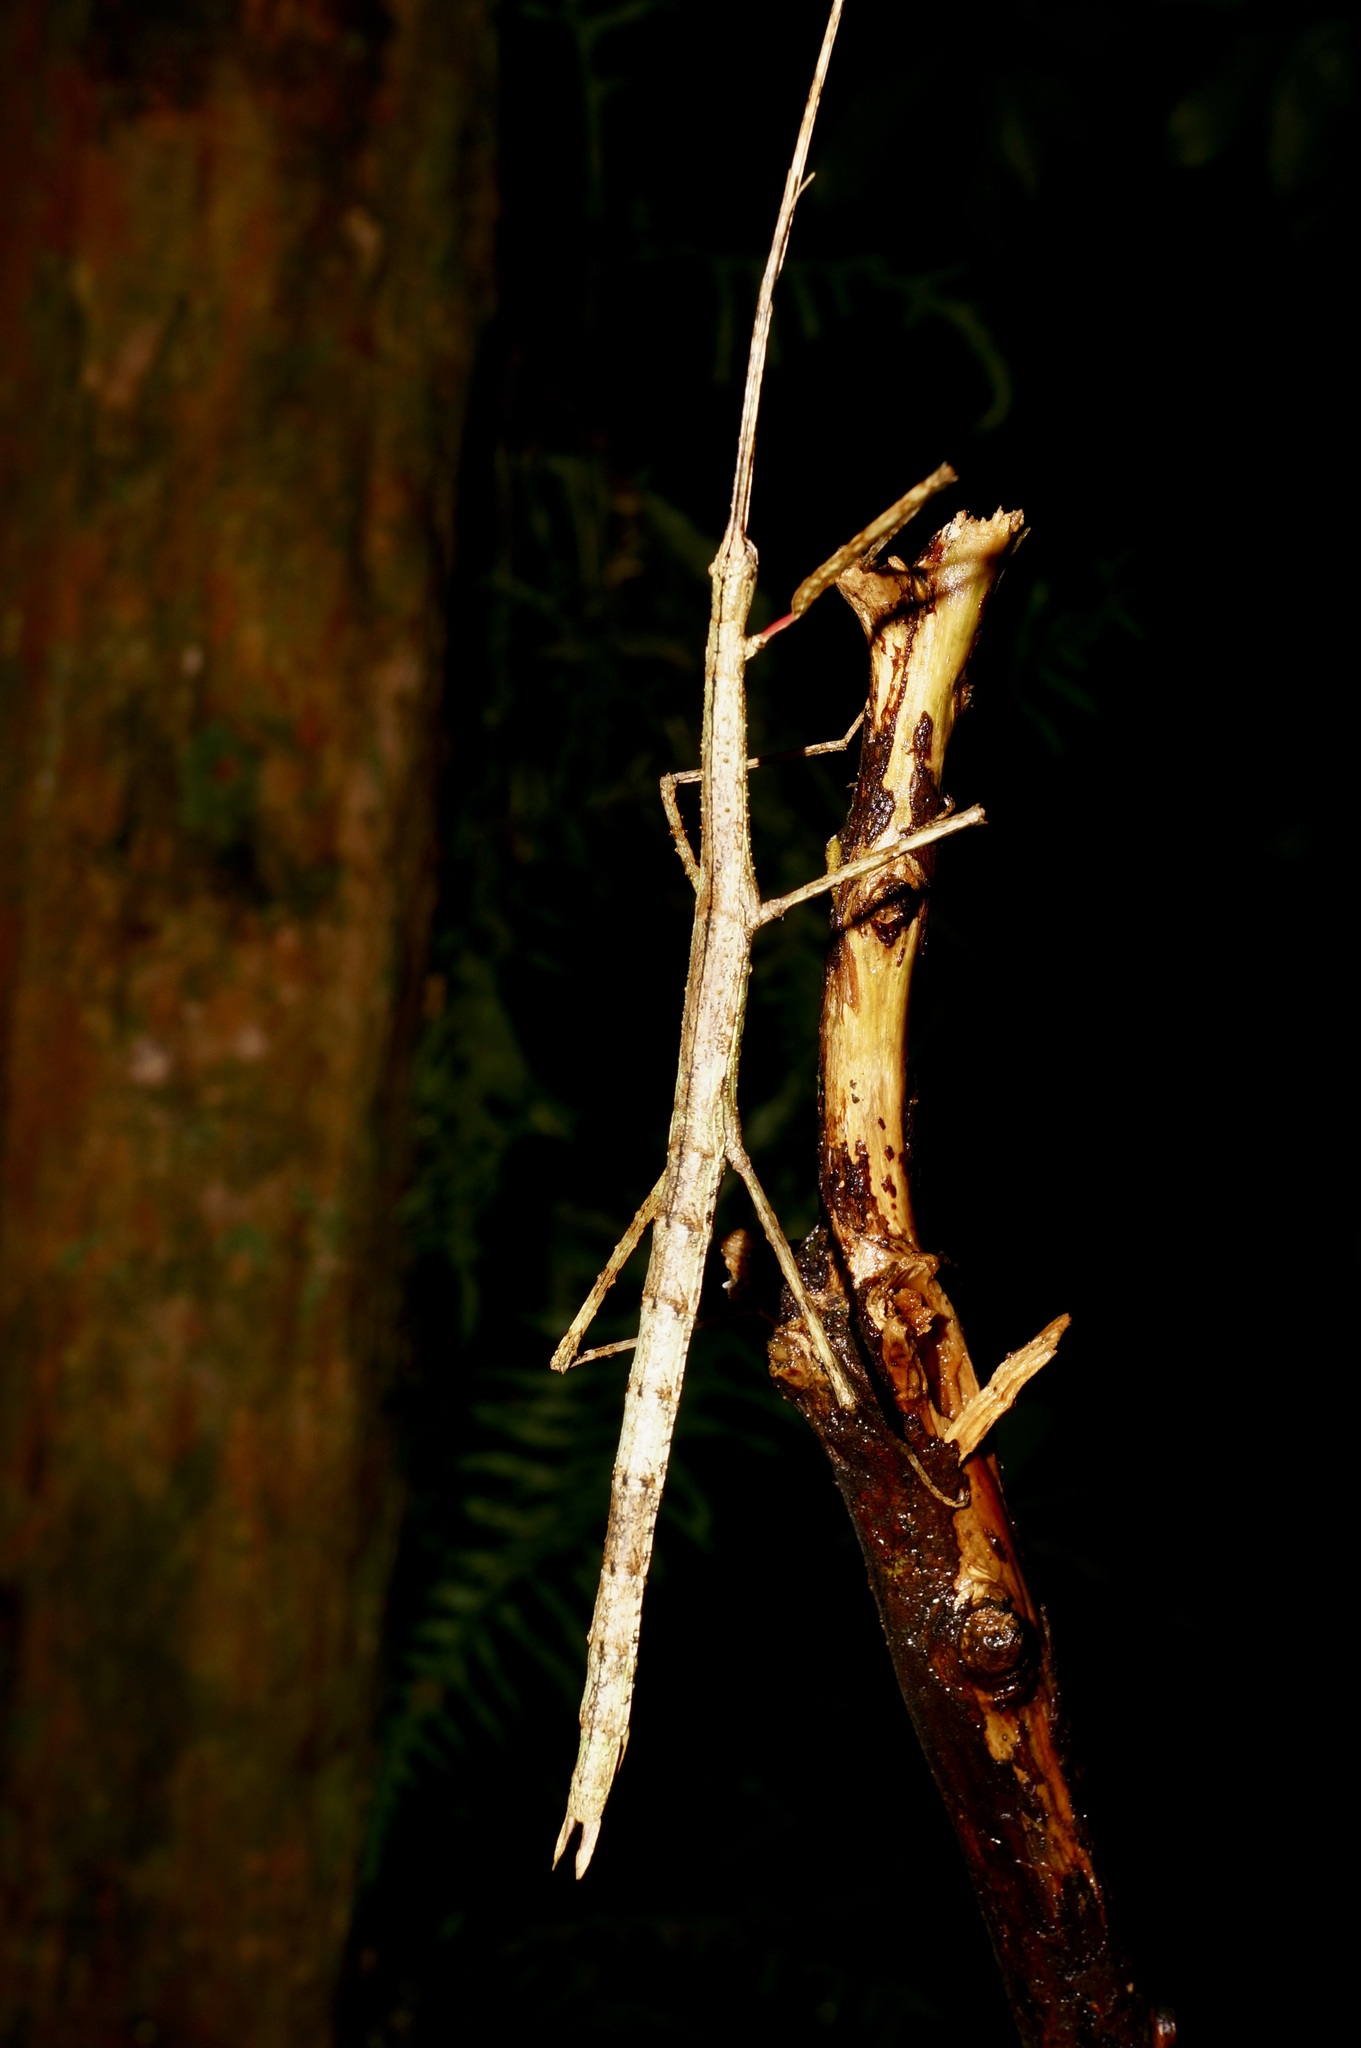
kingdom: Animalia
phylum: Arthropoda
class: Insecta
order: Phasmida
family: Phasmatidae
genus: Clitarchus
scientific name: Clitarchus hookeri
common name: Smooth stick insect
